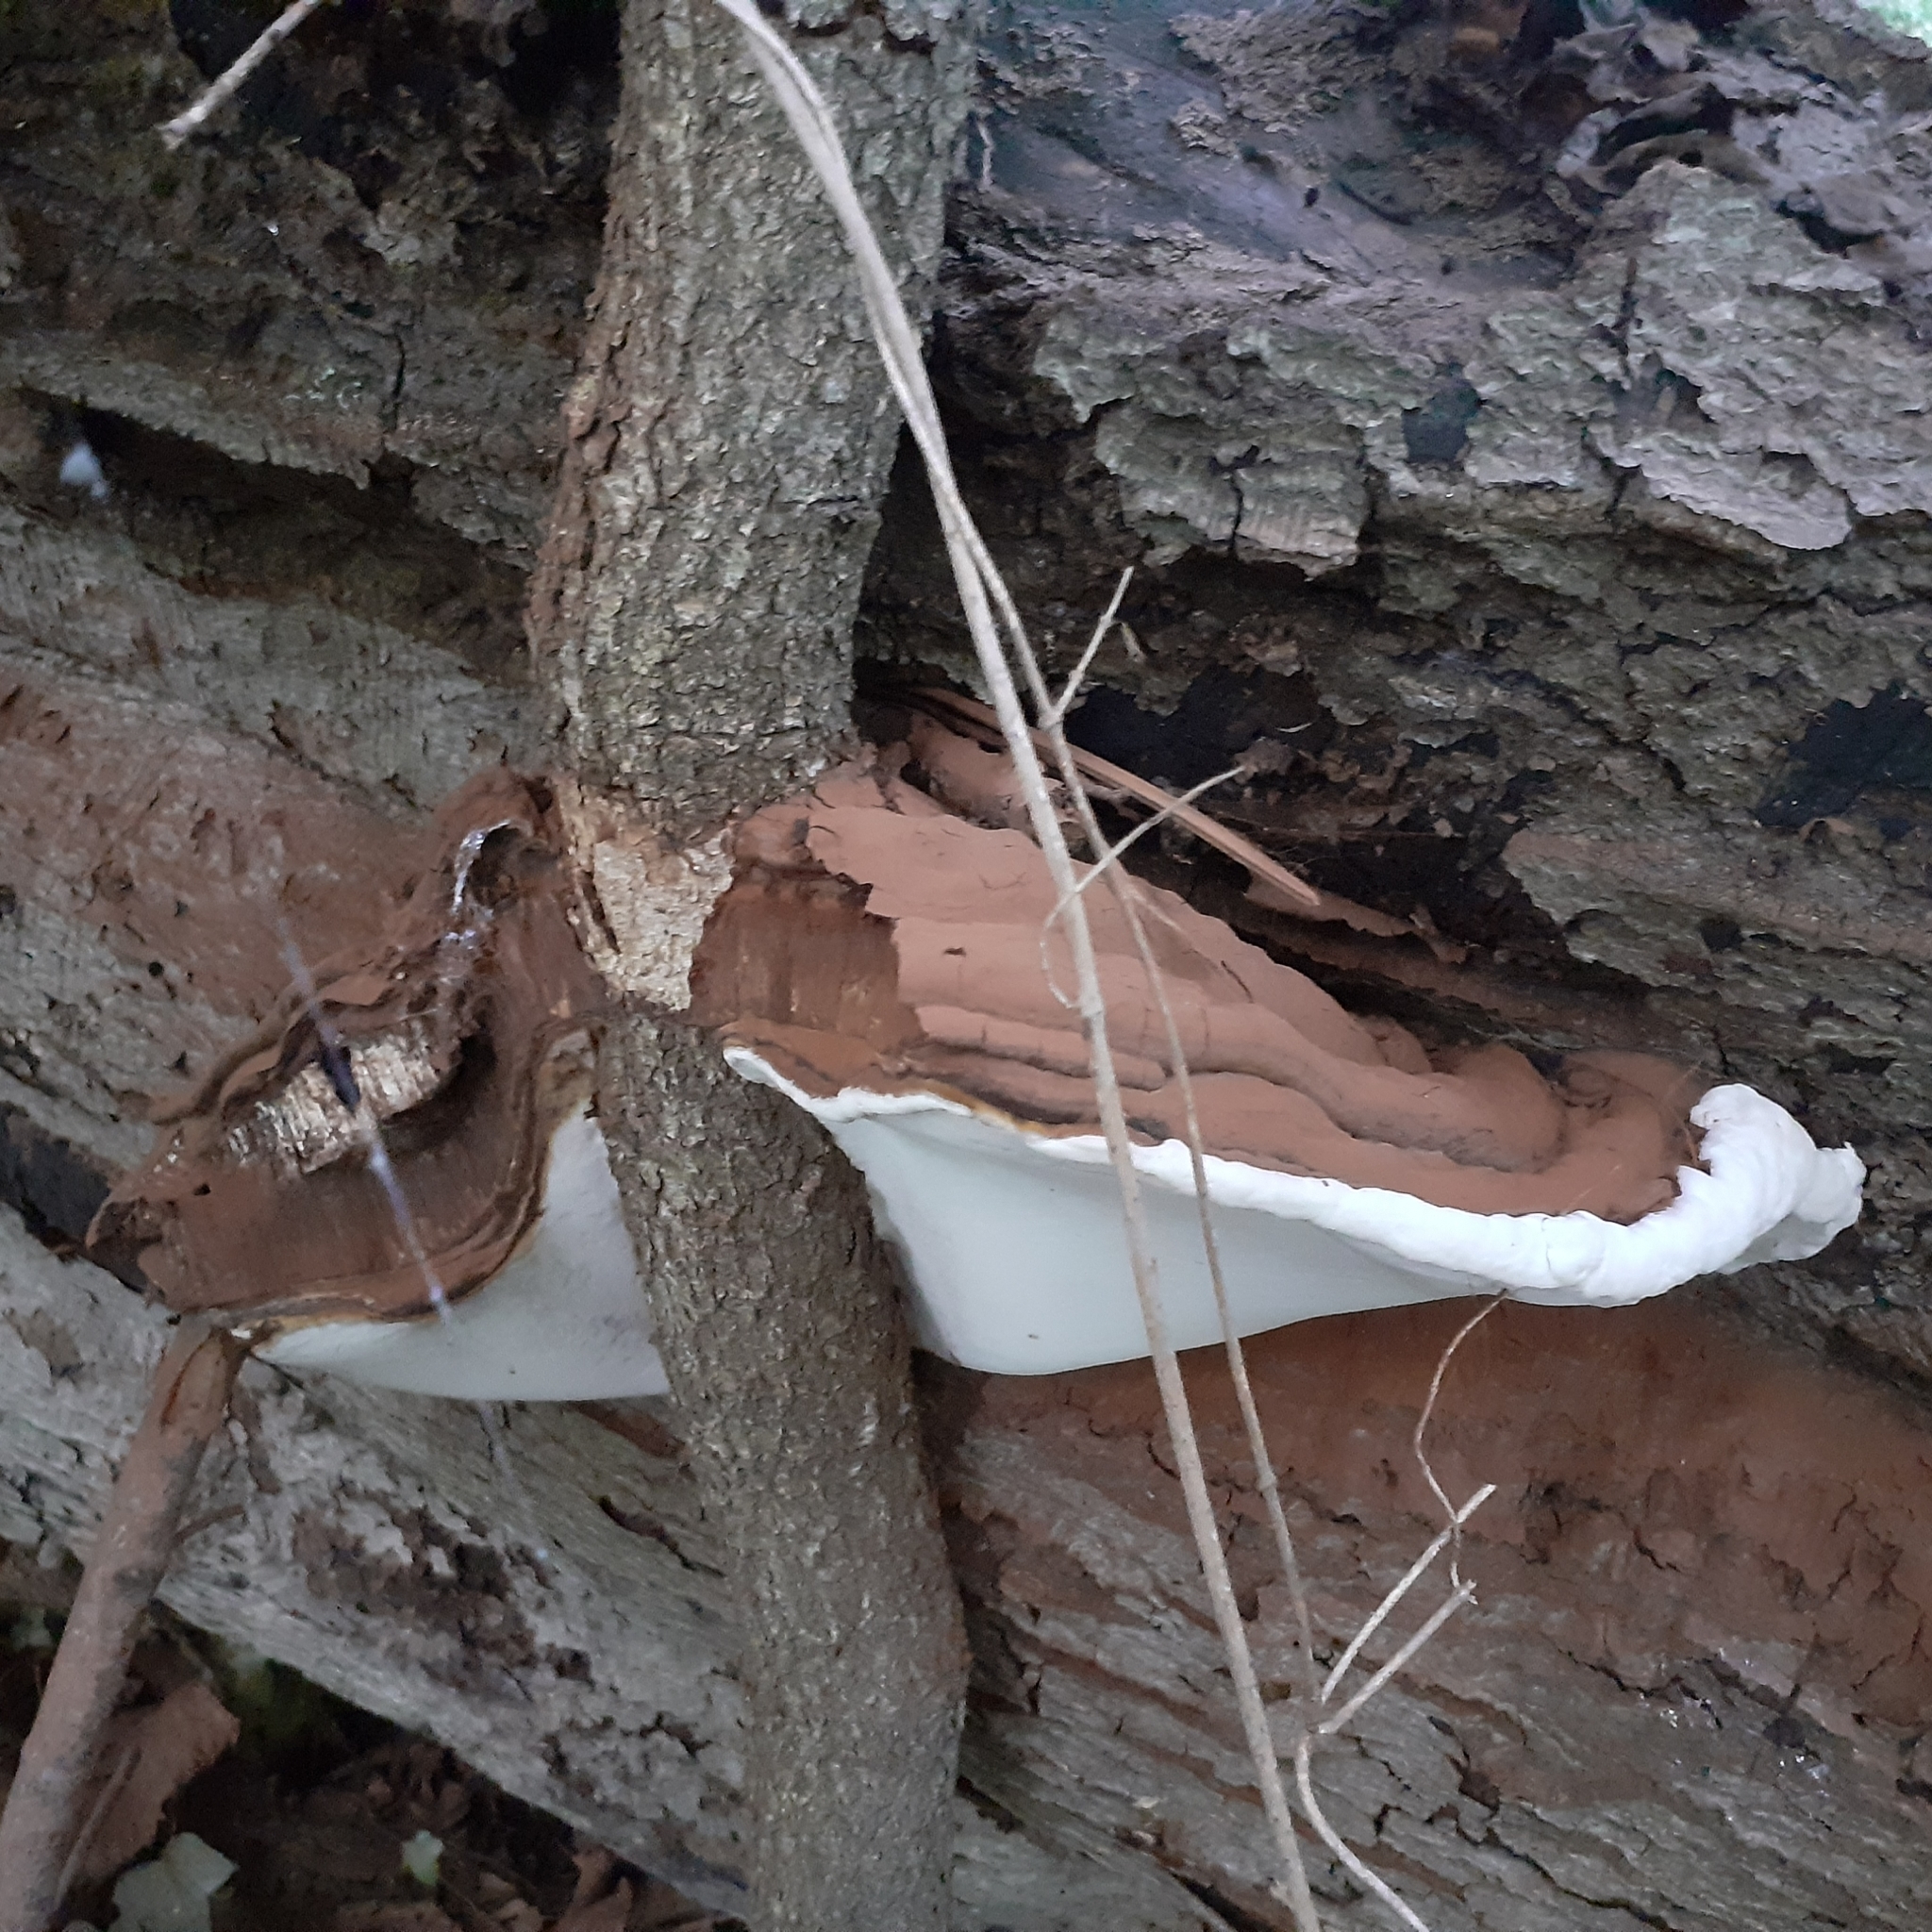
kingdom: Fungi
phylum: Basidiomycota
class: Agaricomycetes
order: Polyporales
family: Polyporaceae
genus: Ganoderma
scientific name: Ganoderma applanatum
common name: Artist's bracket
